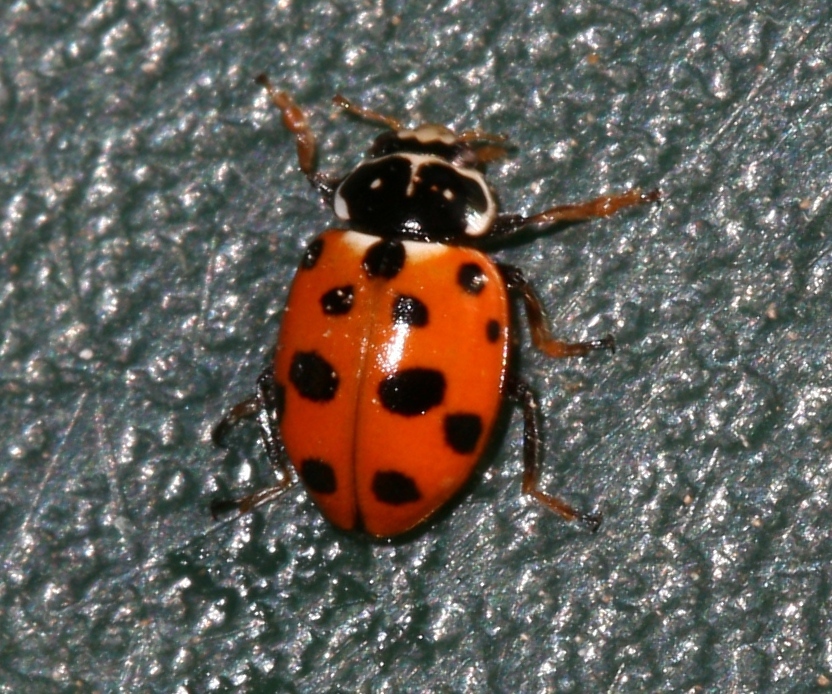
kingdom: Animalia
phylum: Arthropoda
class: Insecta
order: Coleoptera
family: Coccinellidae
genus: Hippodamia
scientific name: Hippodamia variegata
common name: Ladybird beetle
